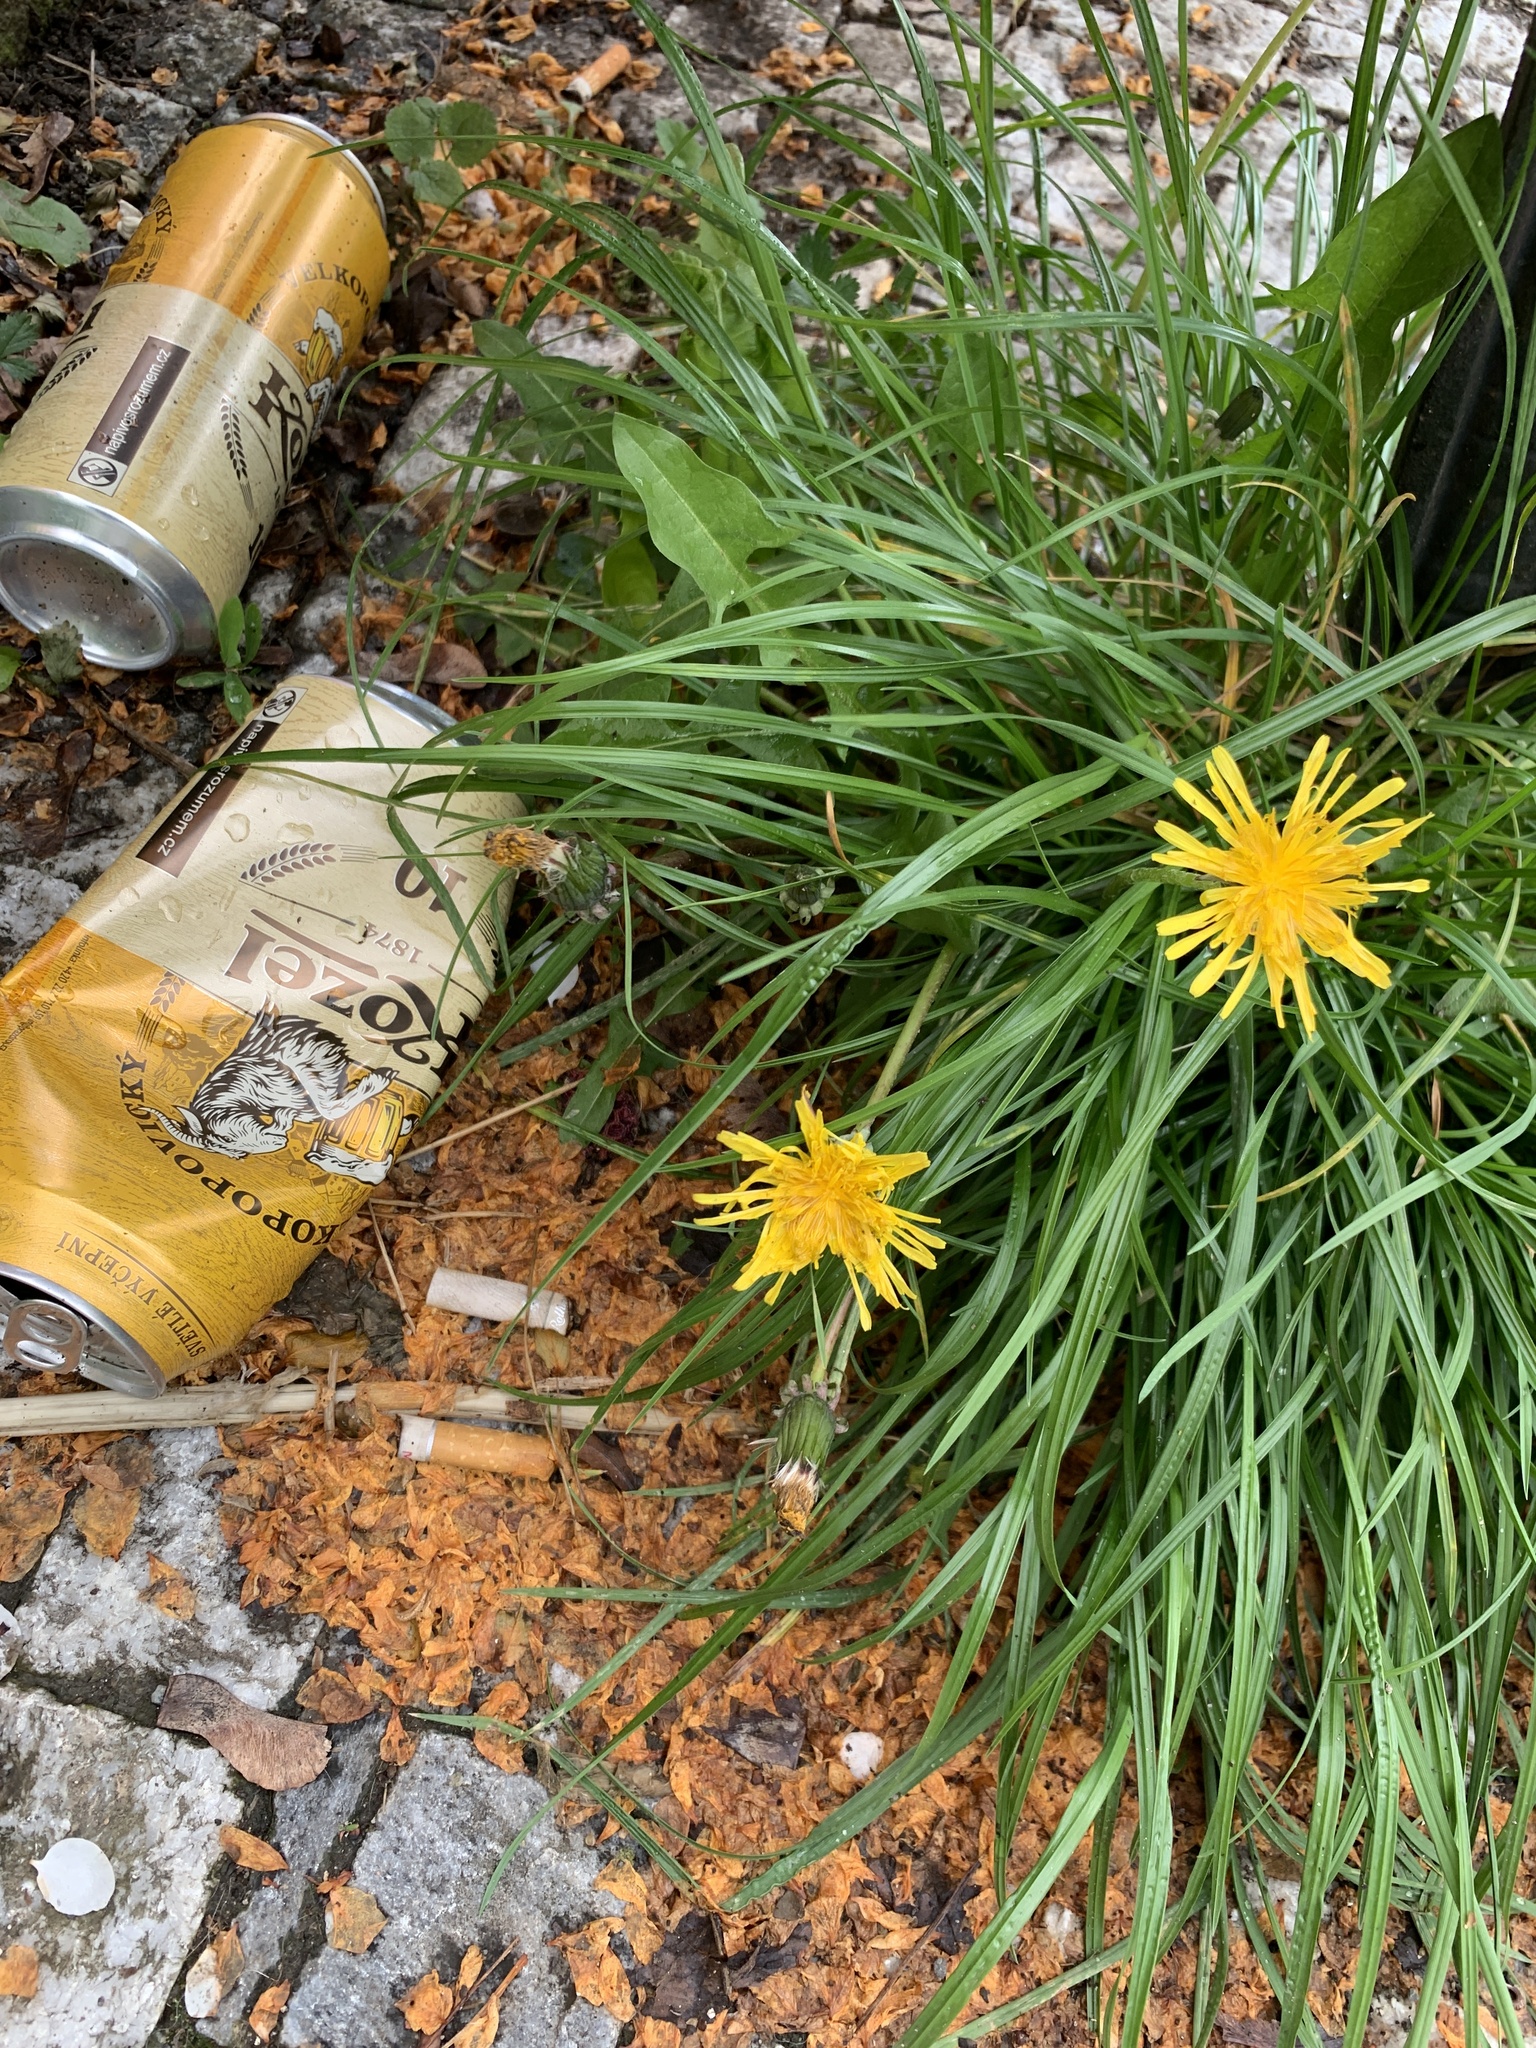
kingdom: Plantae
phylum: Tracheophyta
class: Magnoliopsida
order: Asterales
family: Asteraceae
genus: Taraxacum
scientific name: Taraxacum officinale
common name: Common dandelion
